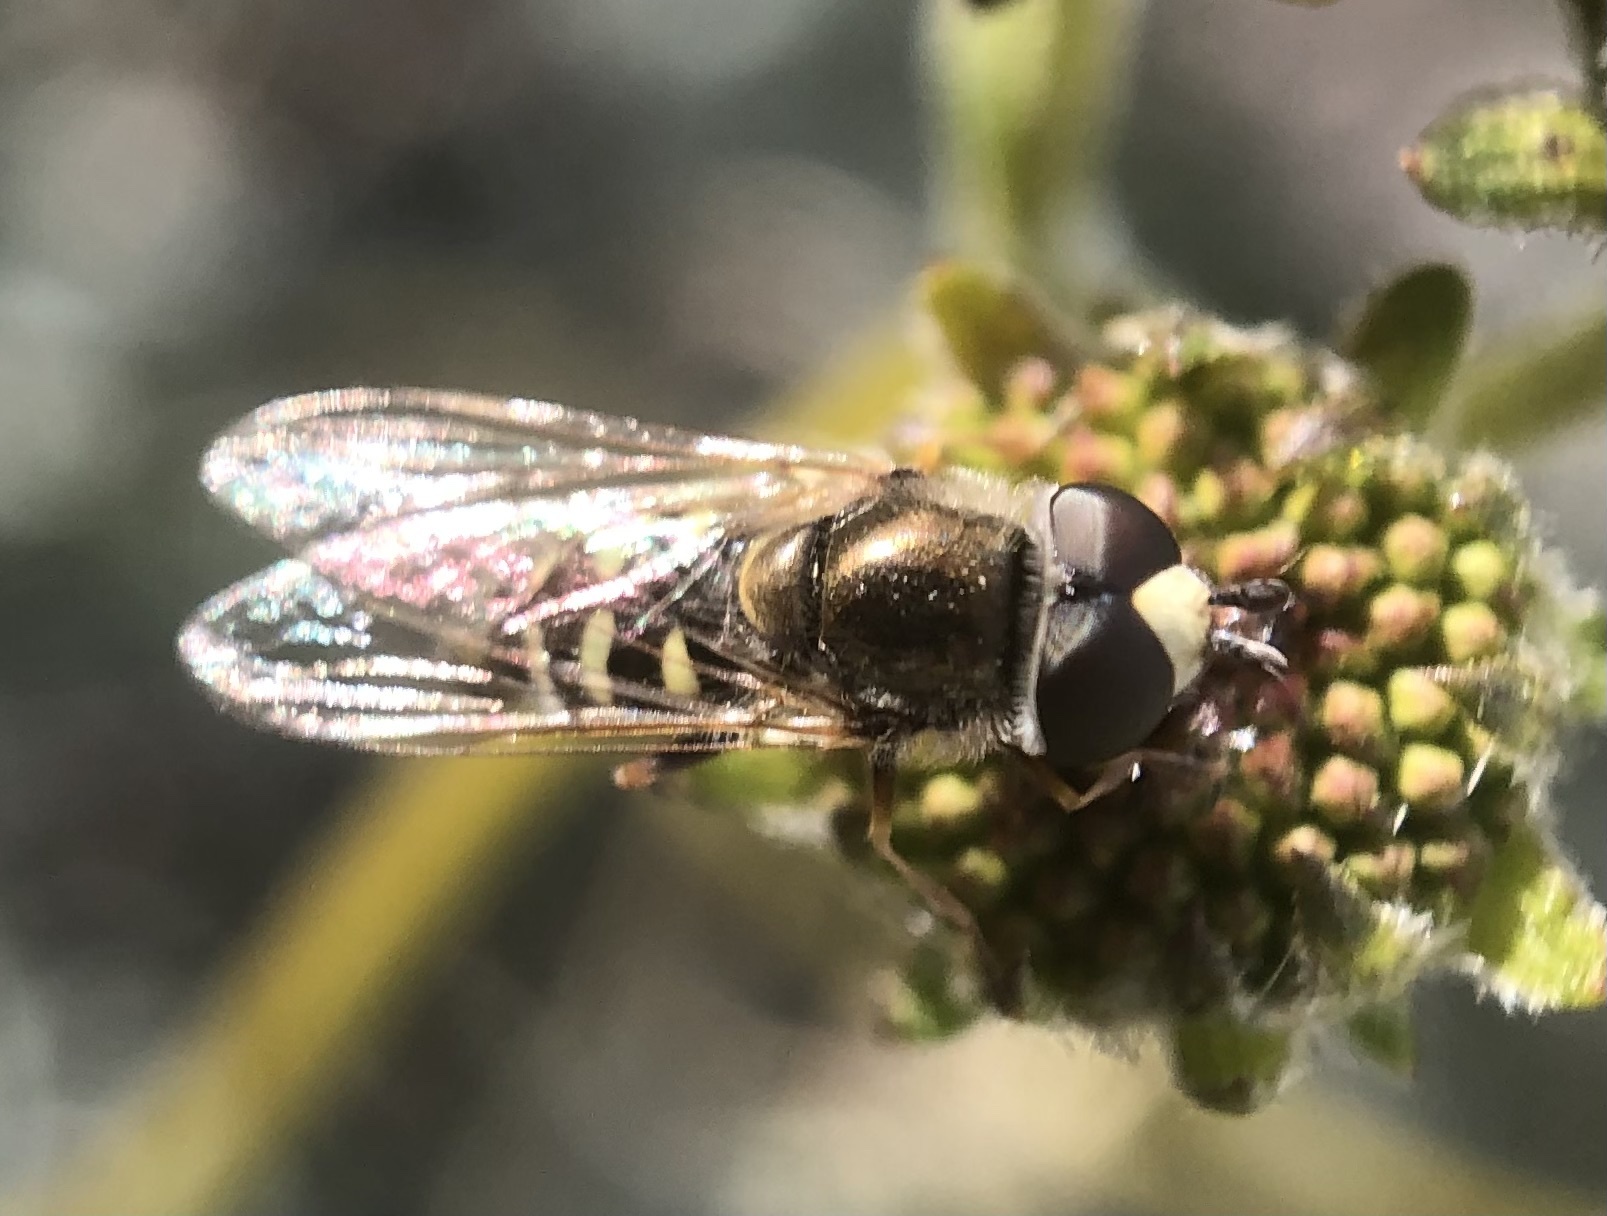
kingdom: Animalia
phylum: Arthropoda
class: Insecta
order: Diptera
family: Syrphidae
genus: Eupeodes
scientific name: Eupeodes volucris
